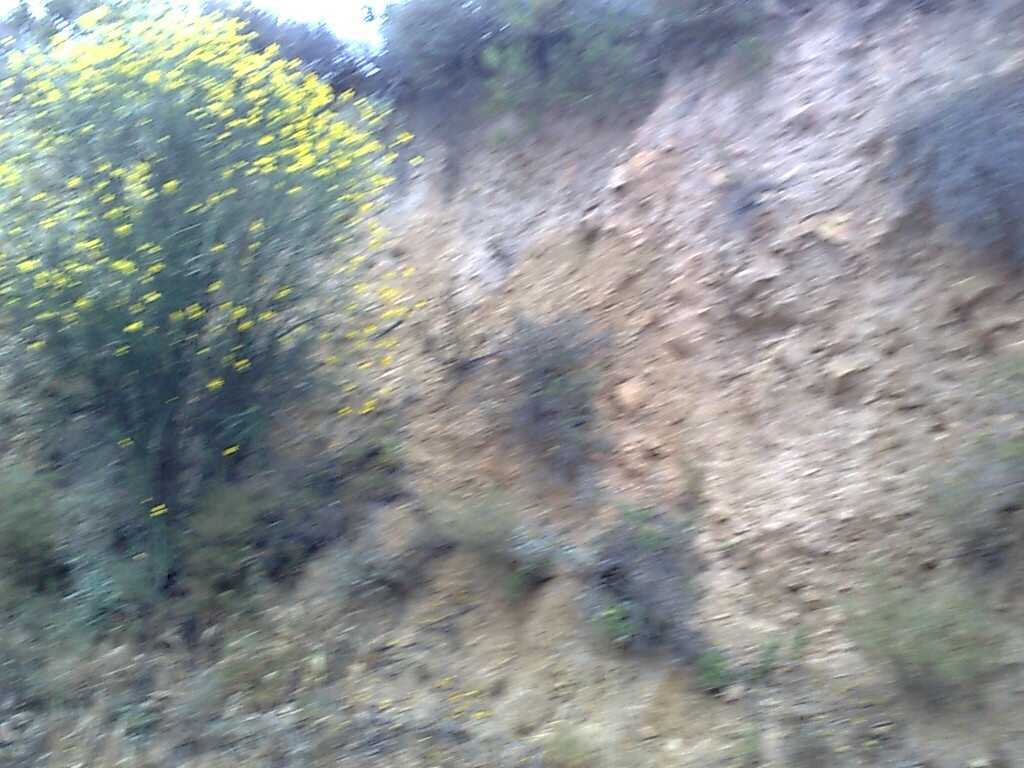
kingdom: Plantae
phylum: Tracheophyta
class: Magnoliopsida
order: Fabales
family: Fabaceae
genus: Spartium
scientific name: Spartium junceum
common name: Spanish broom
